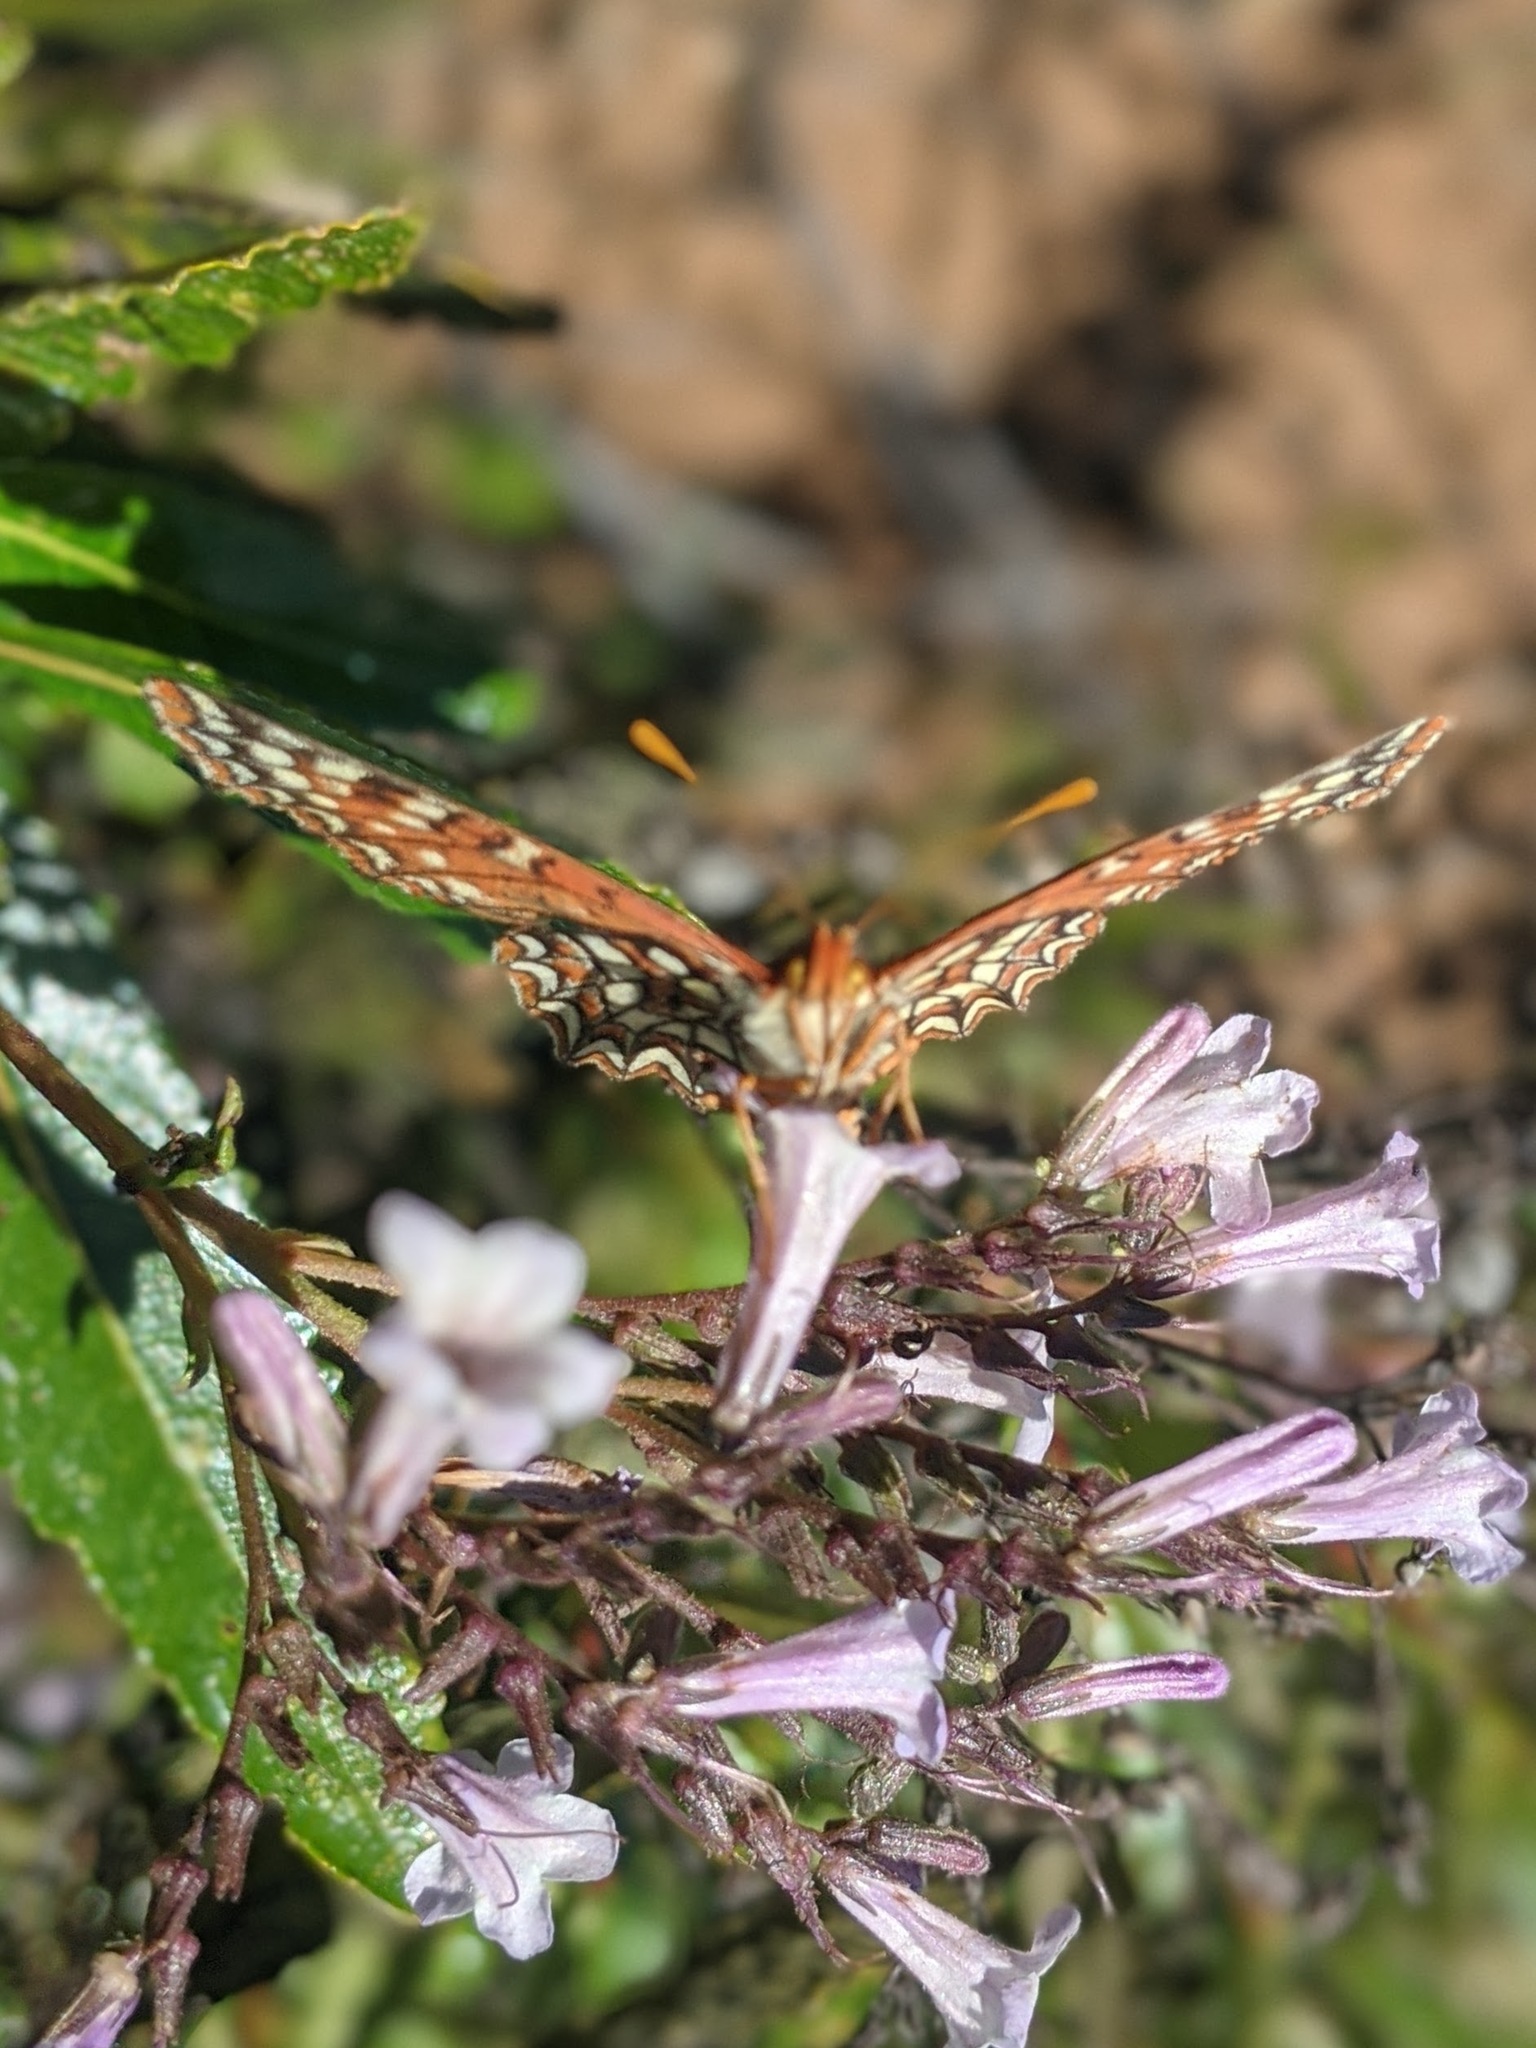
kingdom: Animalia
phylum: Arthropoda
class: Insecta
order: Lepidoptera
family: Nymphalidae
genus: Occidryas
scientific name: Occidryas chalcedona
